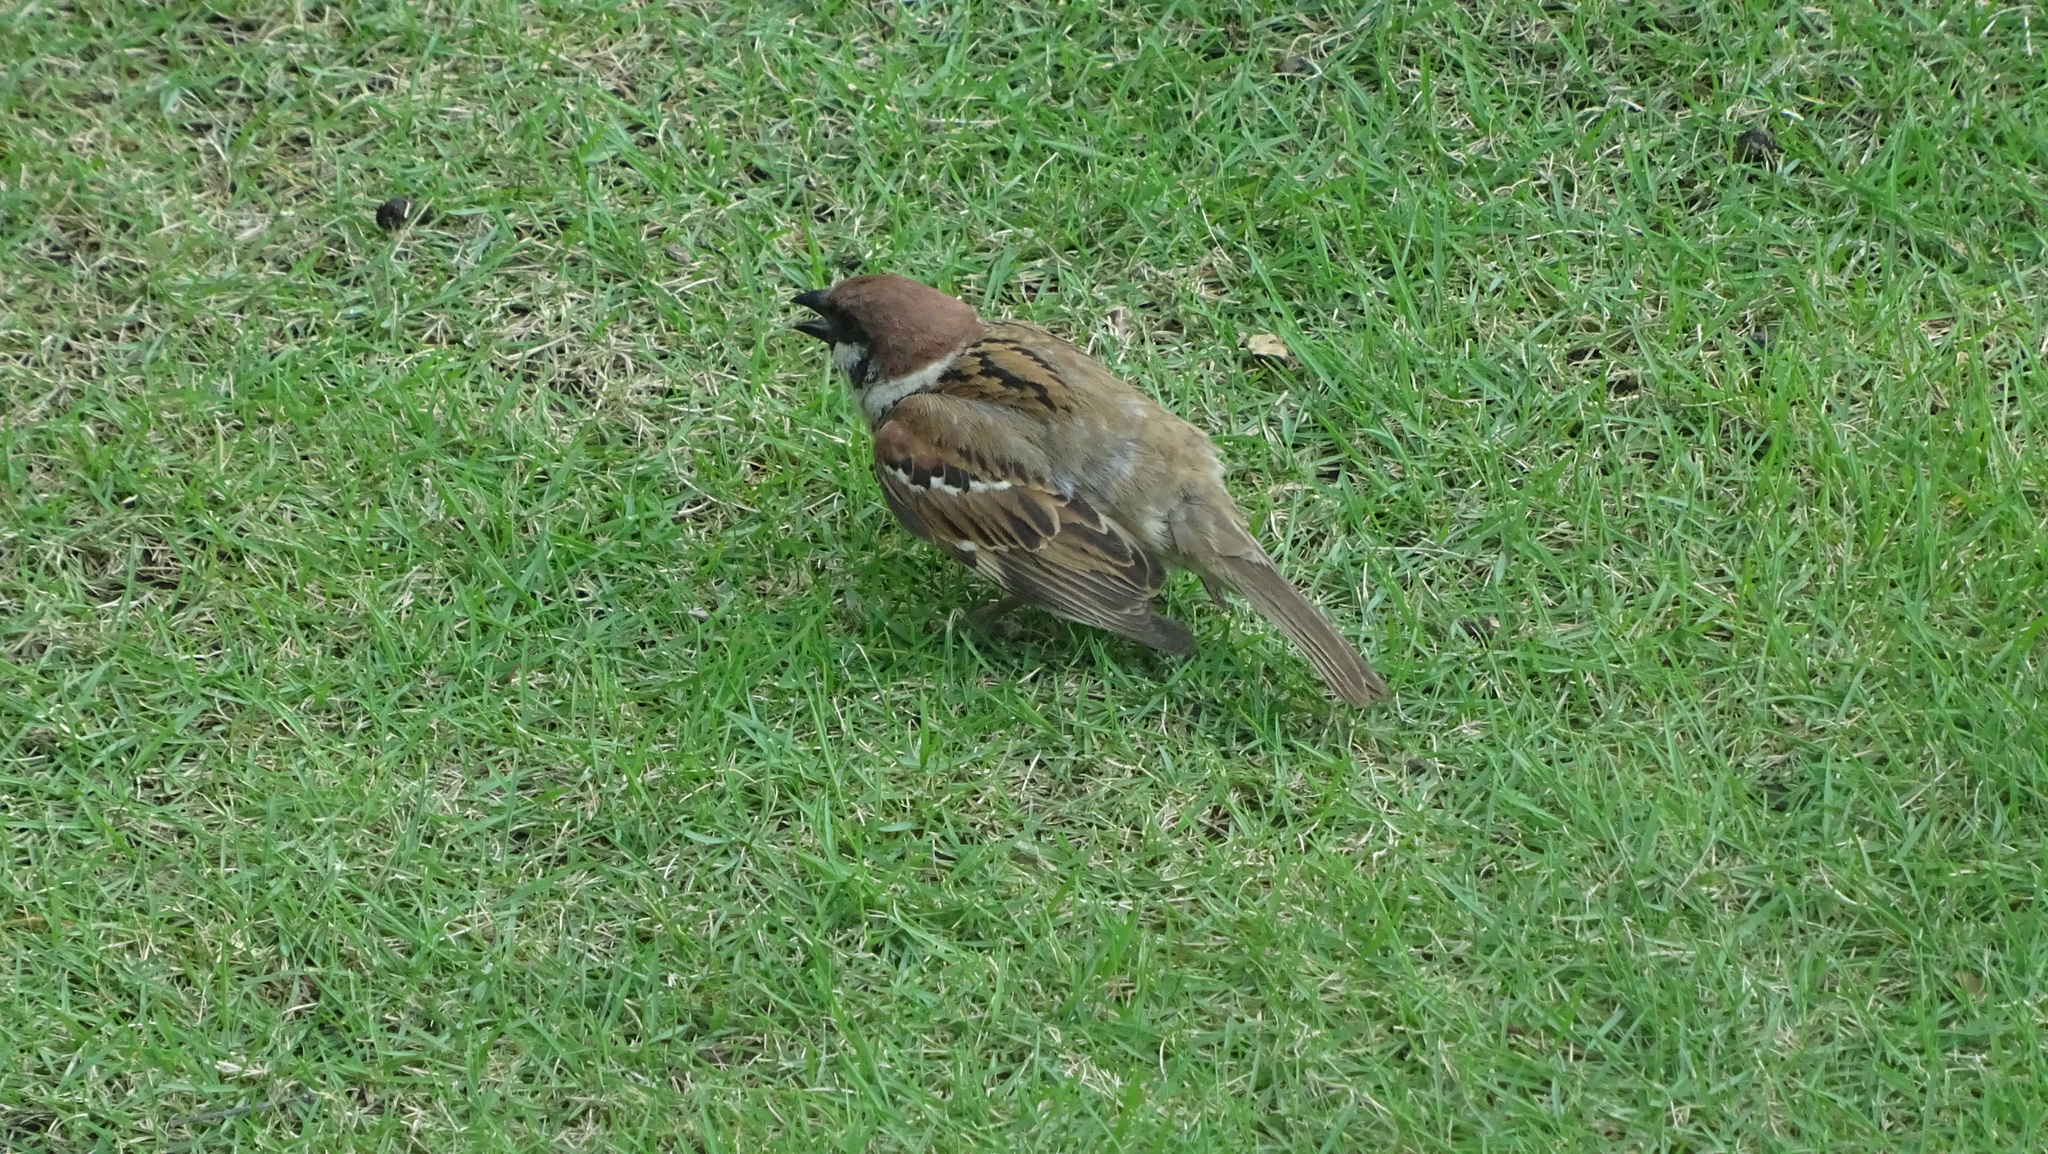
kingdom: Animalia
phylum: Chordata
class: Aves
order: Passeriformes
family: Passeridae
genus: Passer
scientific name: Passer montanus
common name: Eurasian tree sparrow
